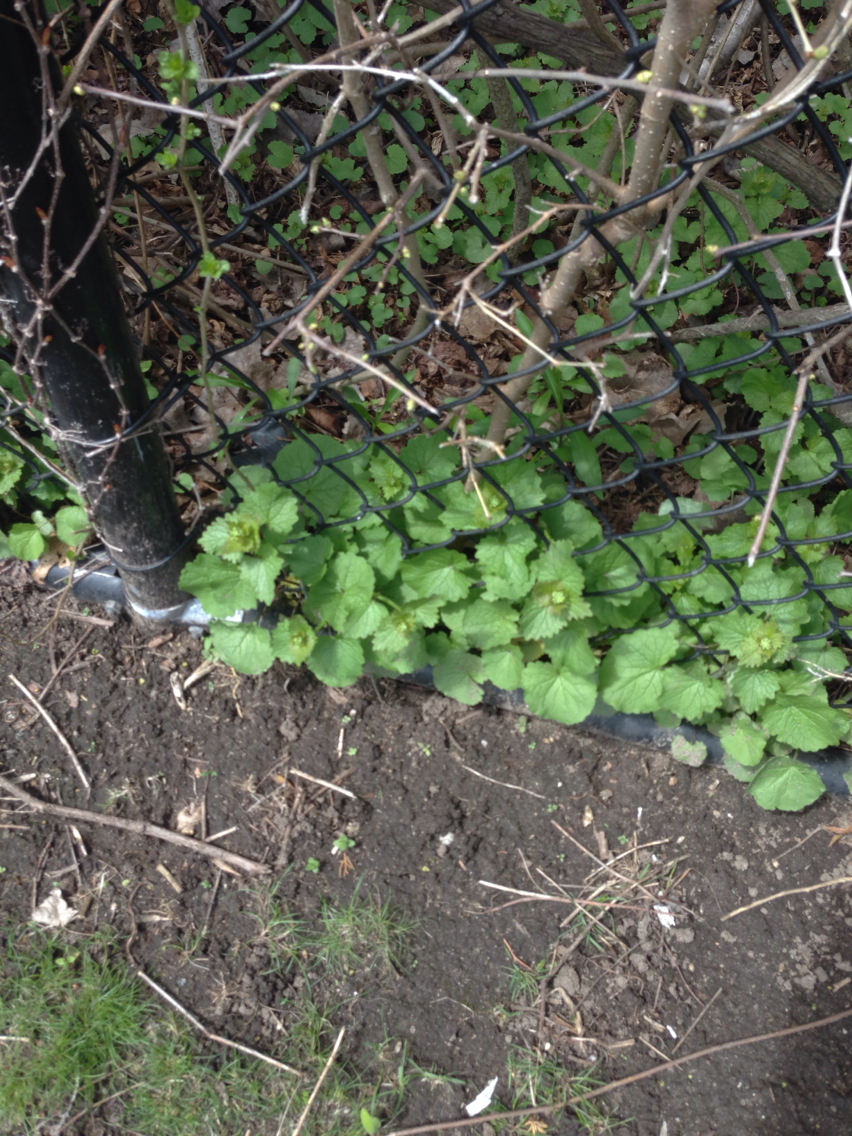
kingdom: Plantae
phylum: Tracheophyta
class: Magnoliopsida
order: Brassicales
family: Brassicaceae
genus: Alliaria
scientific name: Alliaria petiolata
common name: Garlic mustard
